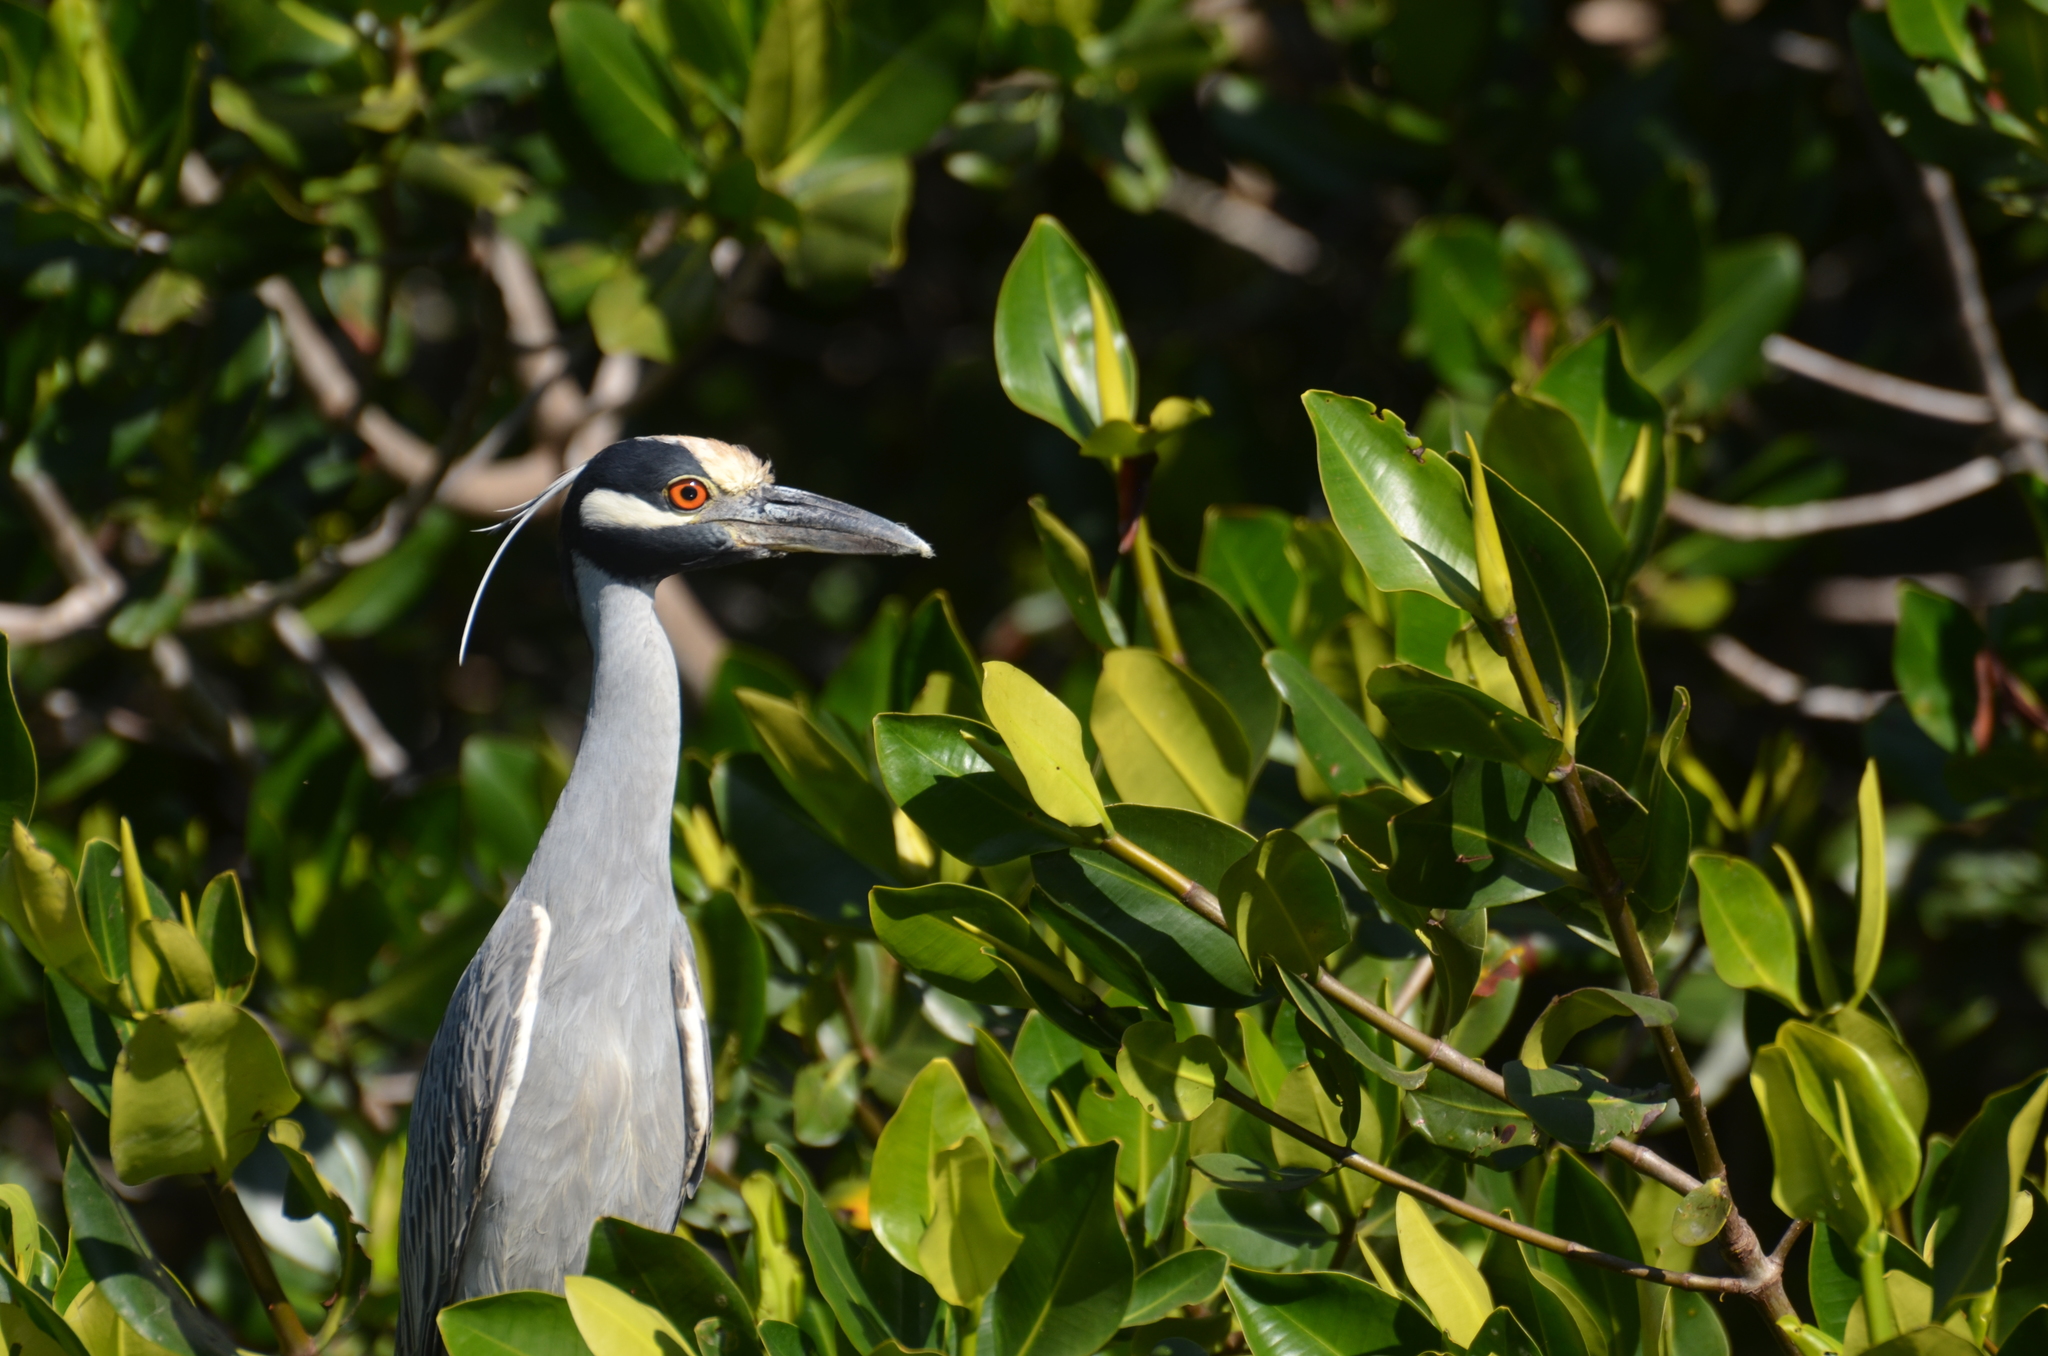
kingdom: Animalia
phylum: Chordata
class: Aves
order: Pelecaniformes
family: Ardeidae
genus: Nyctanassa
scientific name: Nyctanassa violacea
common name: Yellow-crowned night heron
